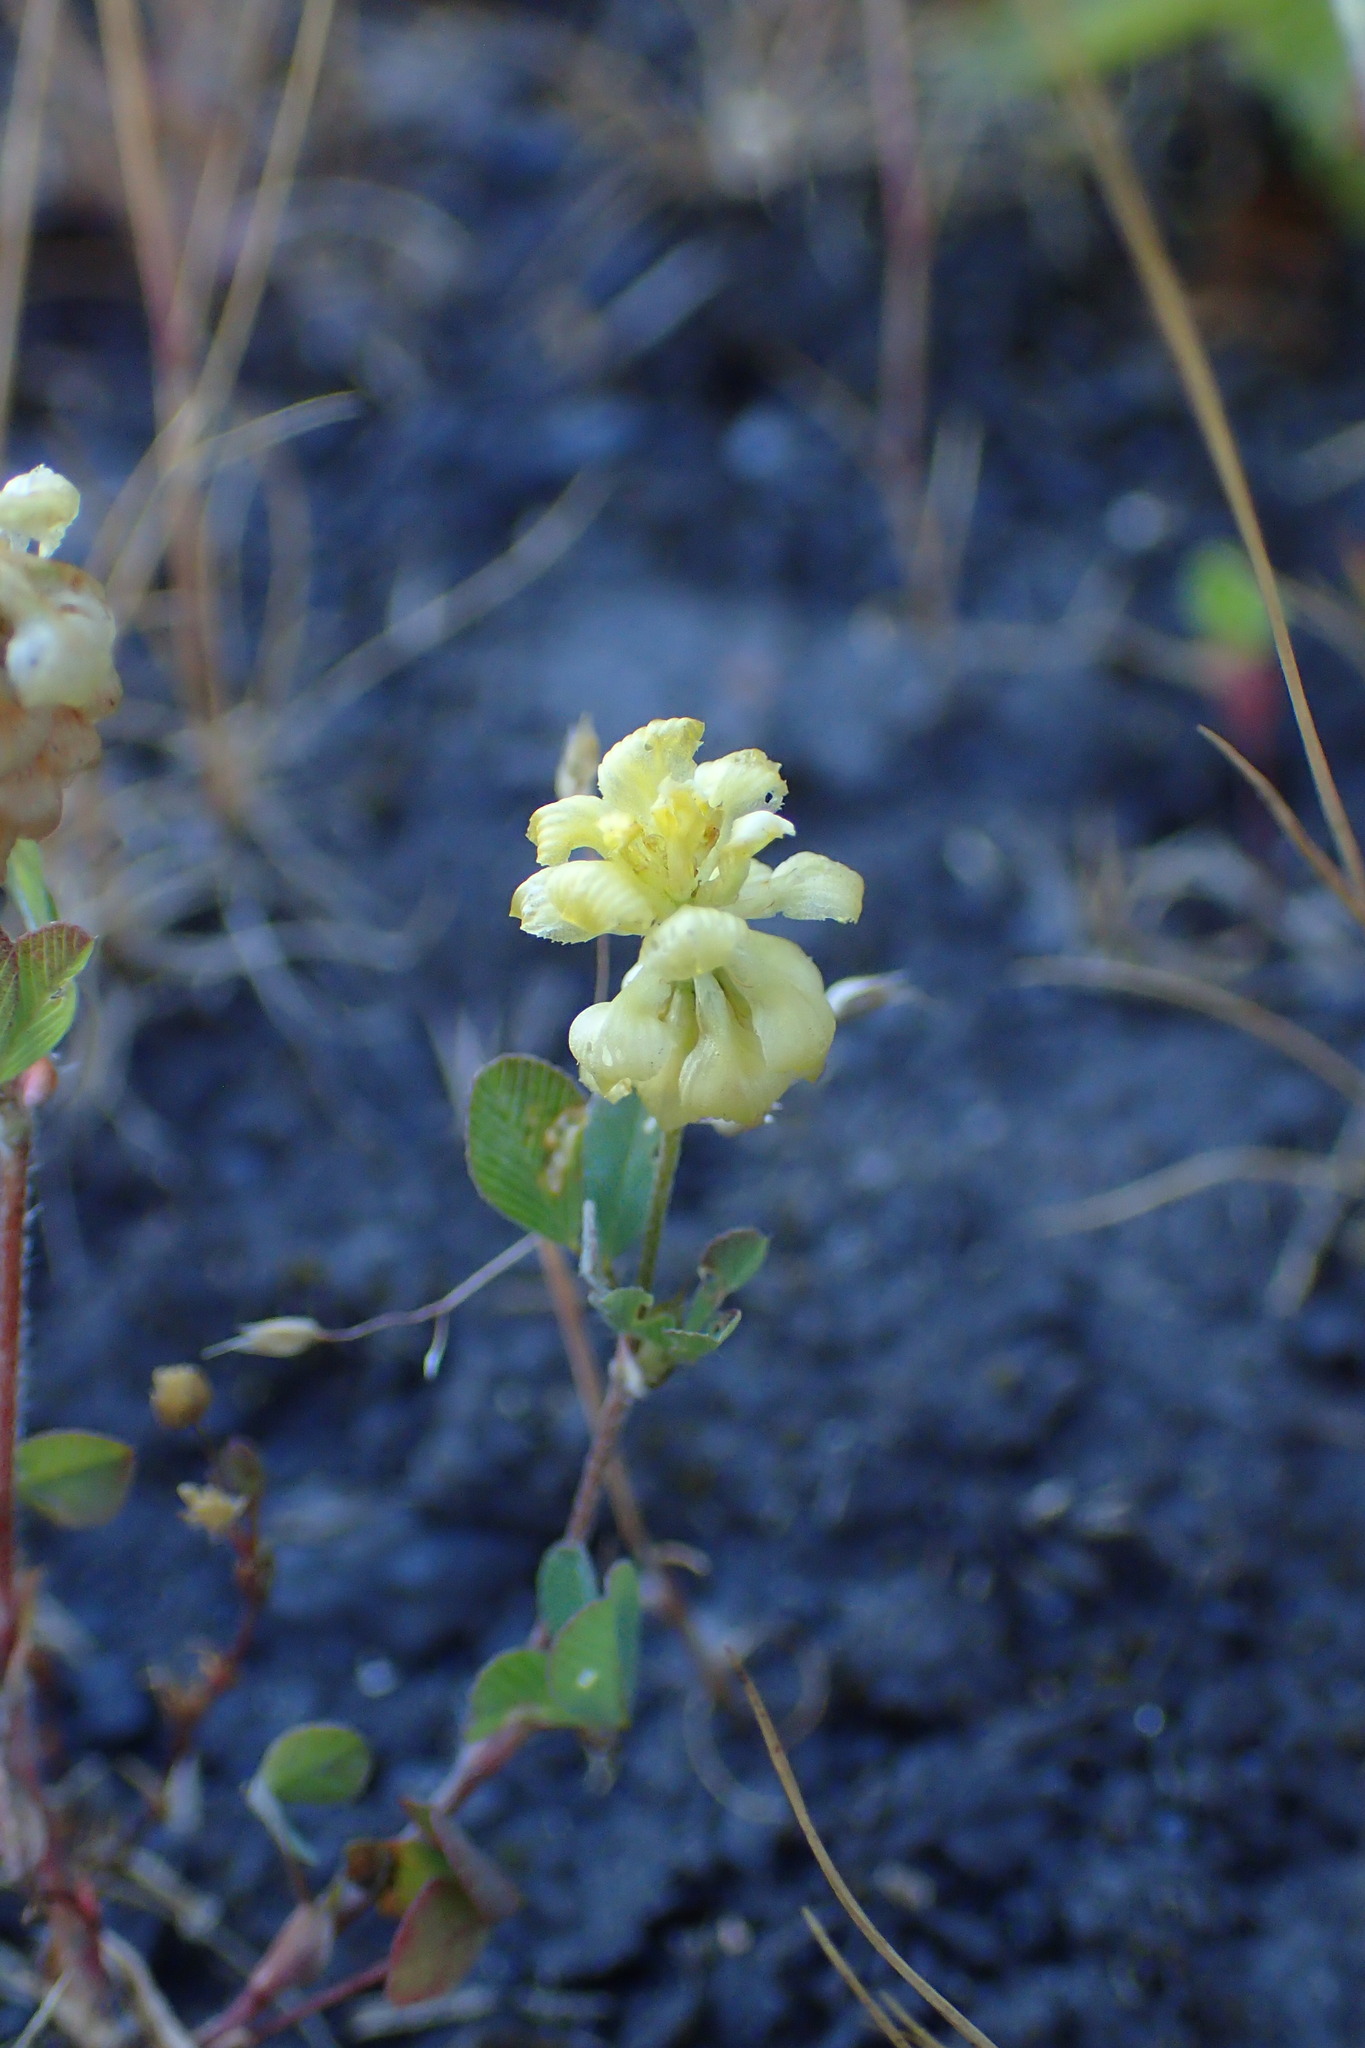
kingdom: Plantae
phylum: Tracheophyta
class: Magnoliopsida
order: Fabales
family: Fabaceae
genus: Trifolium
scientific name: Trifolium campestre
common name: Field clover
